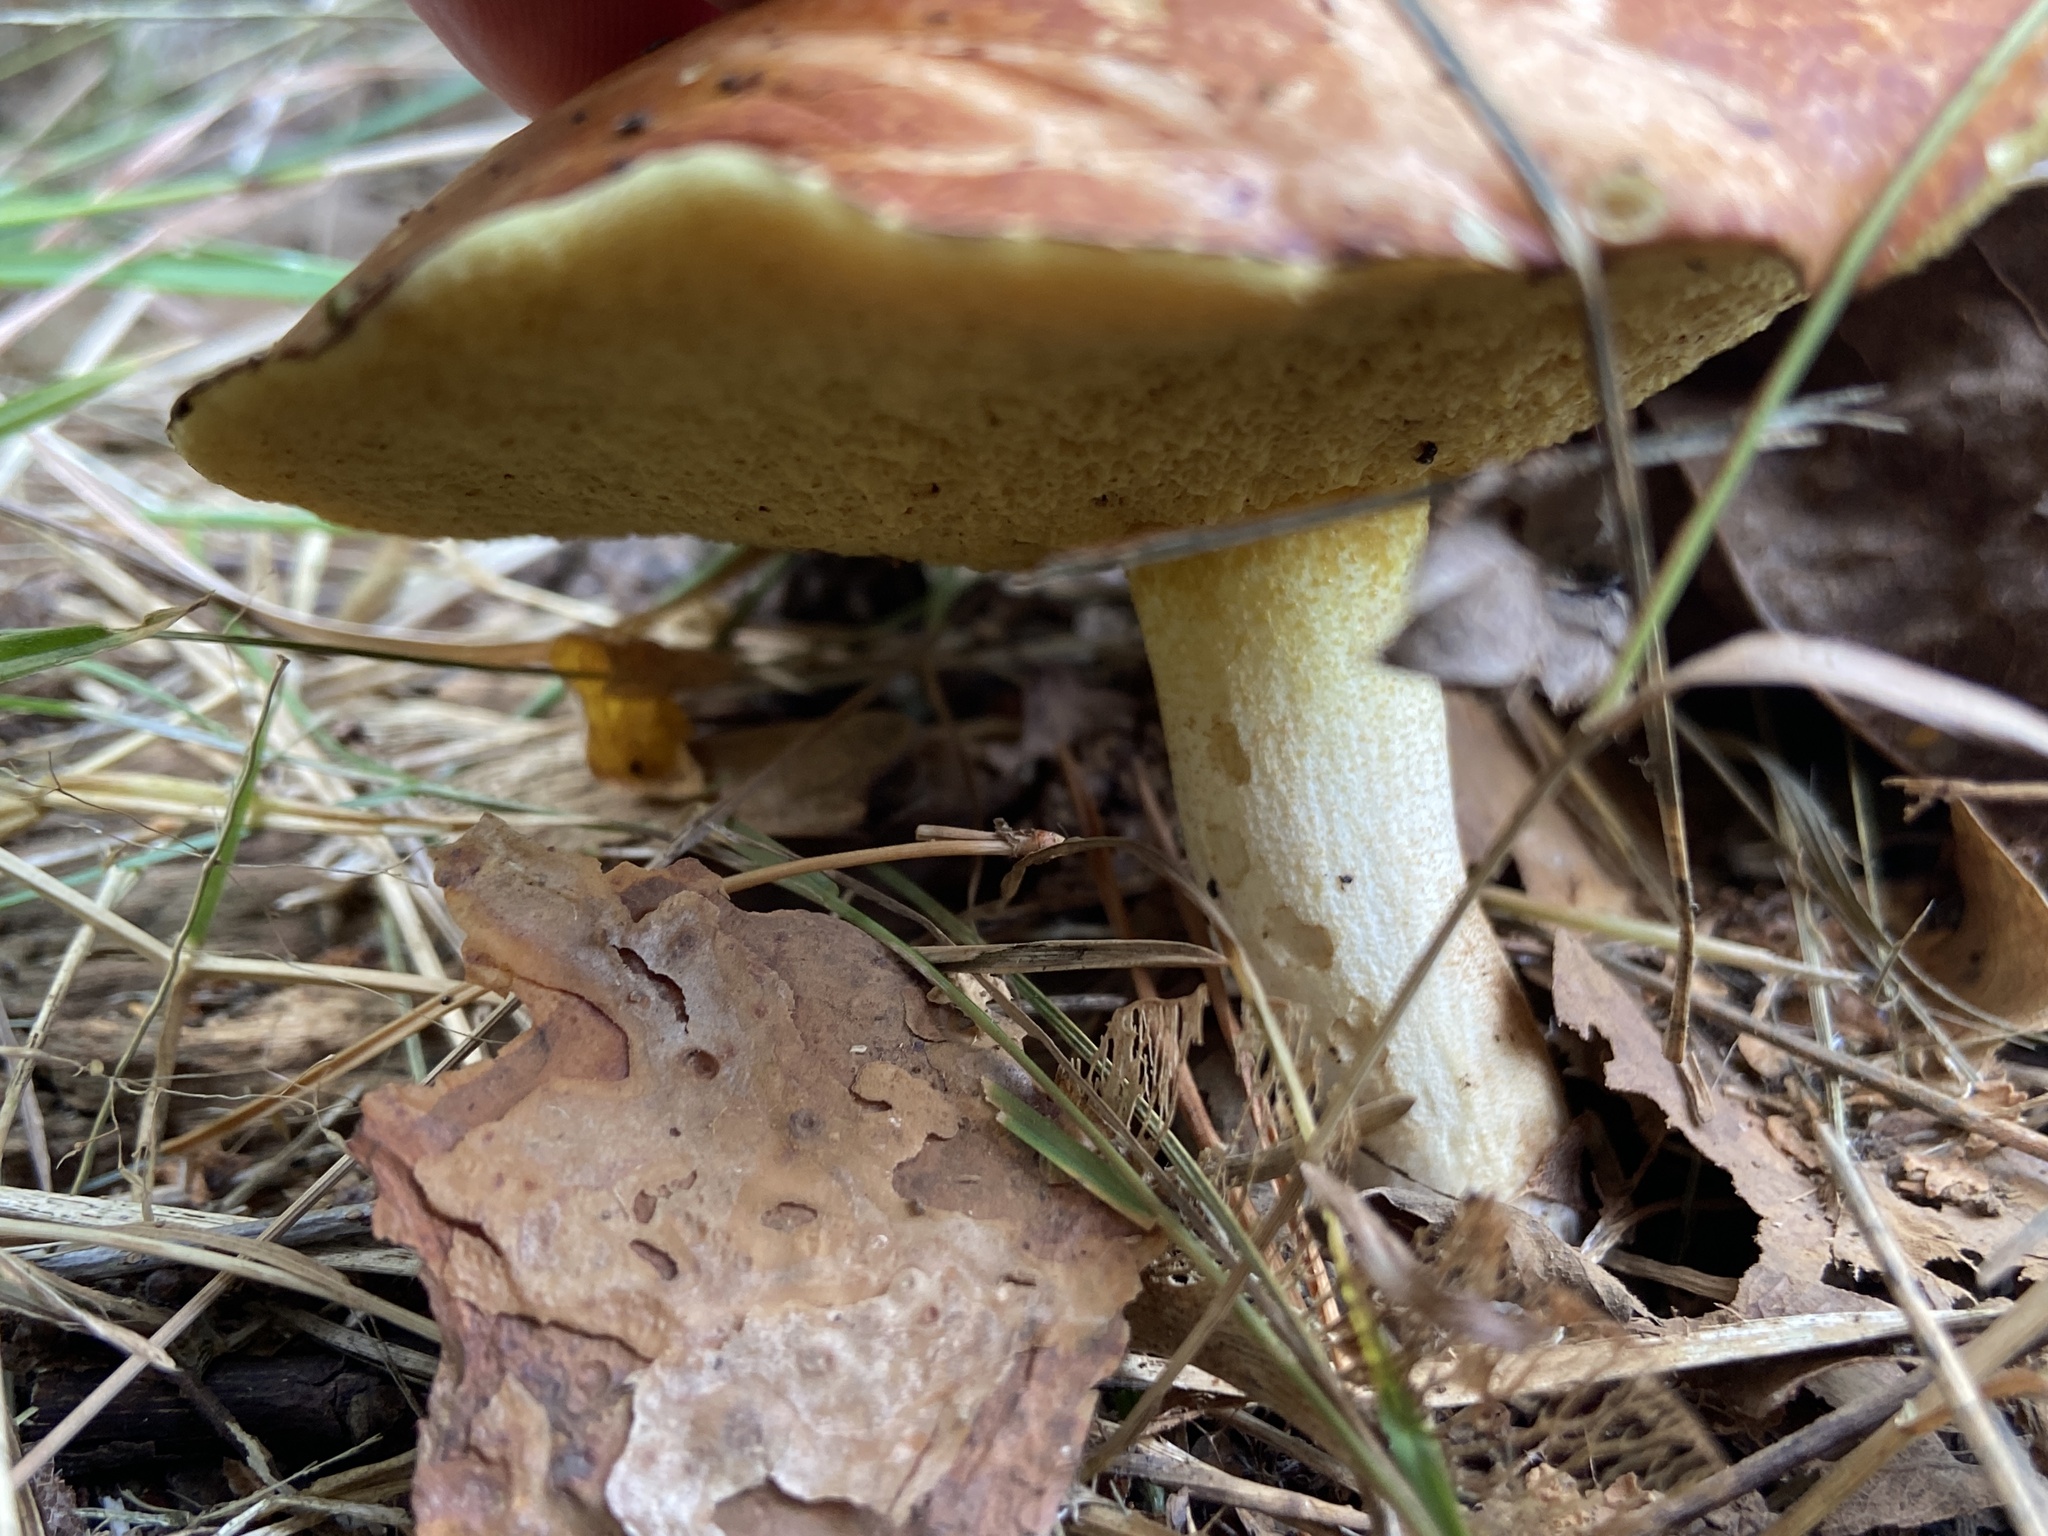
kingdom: Fungi
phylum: Basidiomycota
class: Agaricomycetes
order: Boletales
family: Suillaceae
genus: Suillus
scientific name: Suillus granulatus
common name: Weeping bolete
